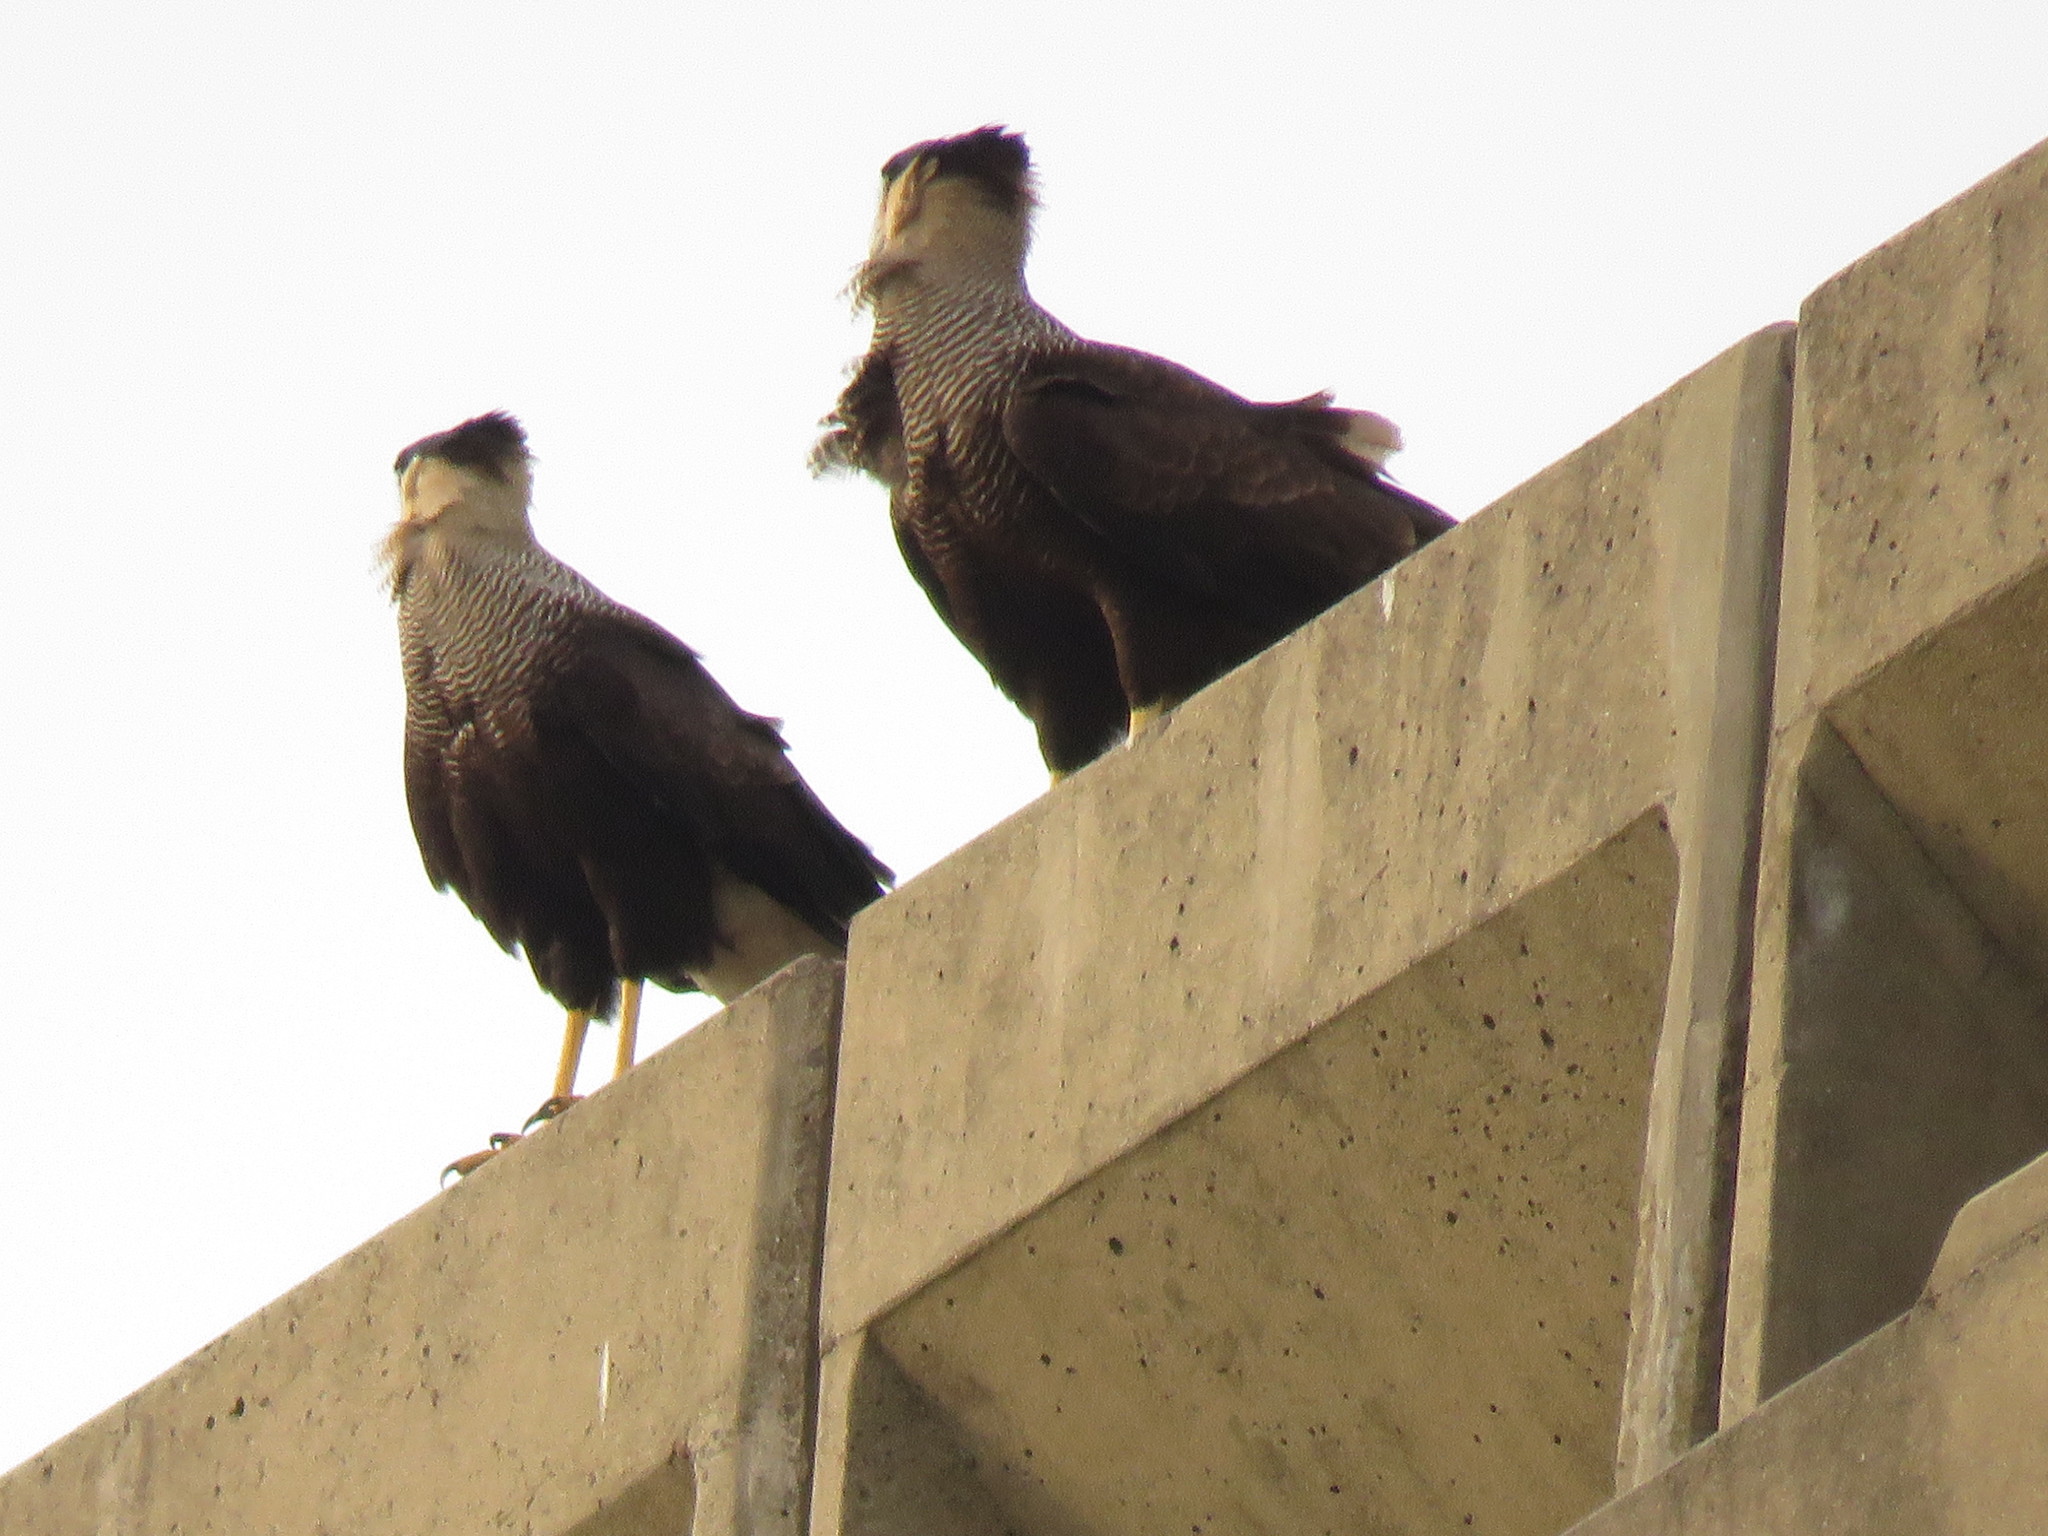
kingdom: Animalia
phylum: Chordata
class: Aves
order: Falconiformes
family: Falconidae
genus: Caracara
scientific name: Caracara plancus
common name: Southern caracara
